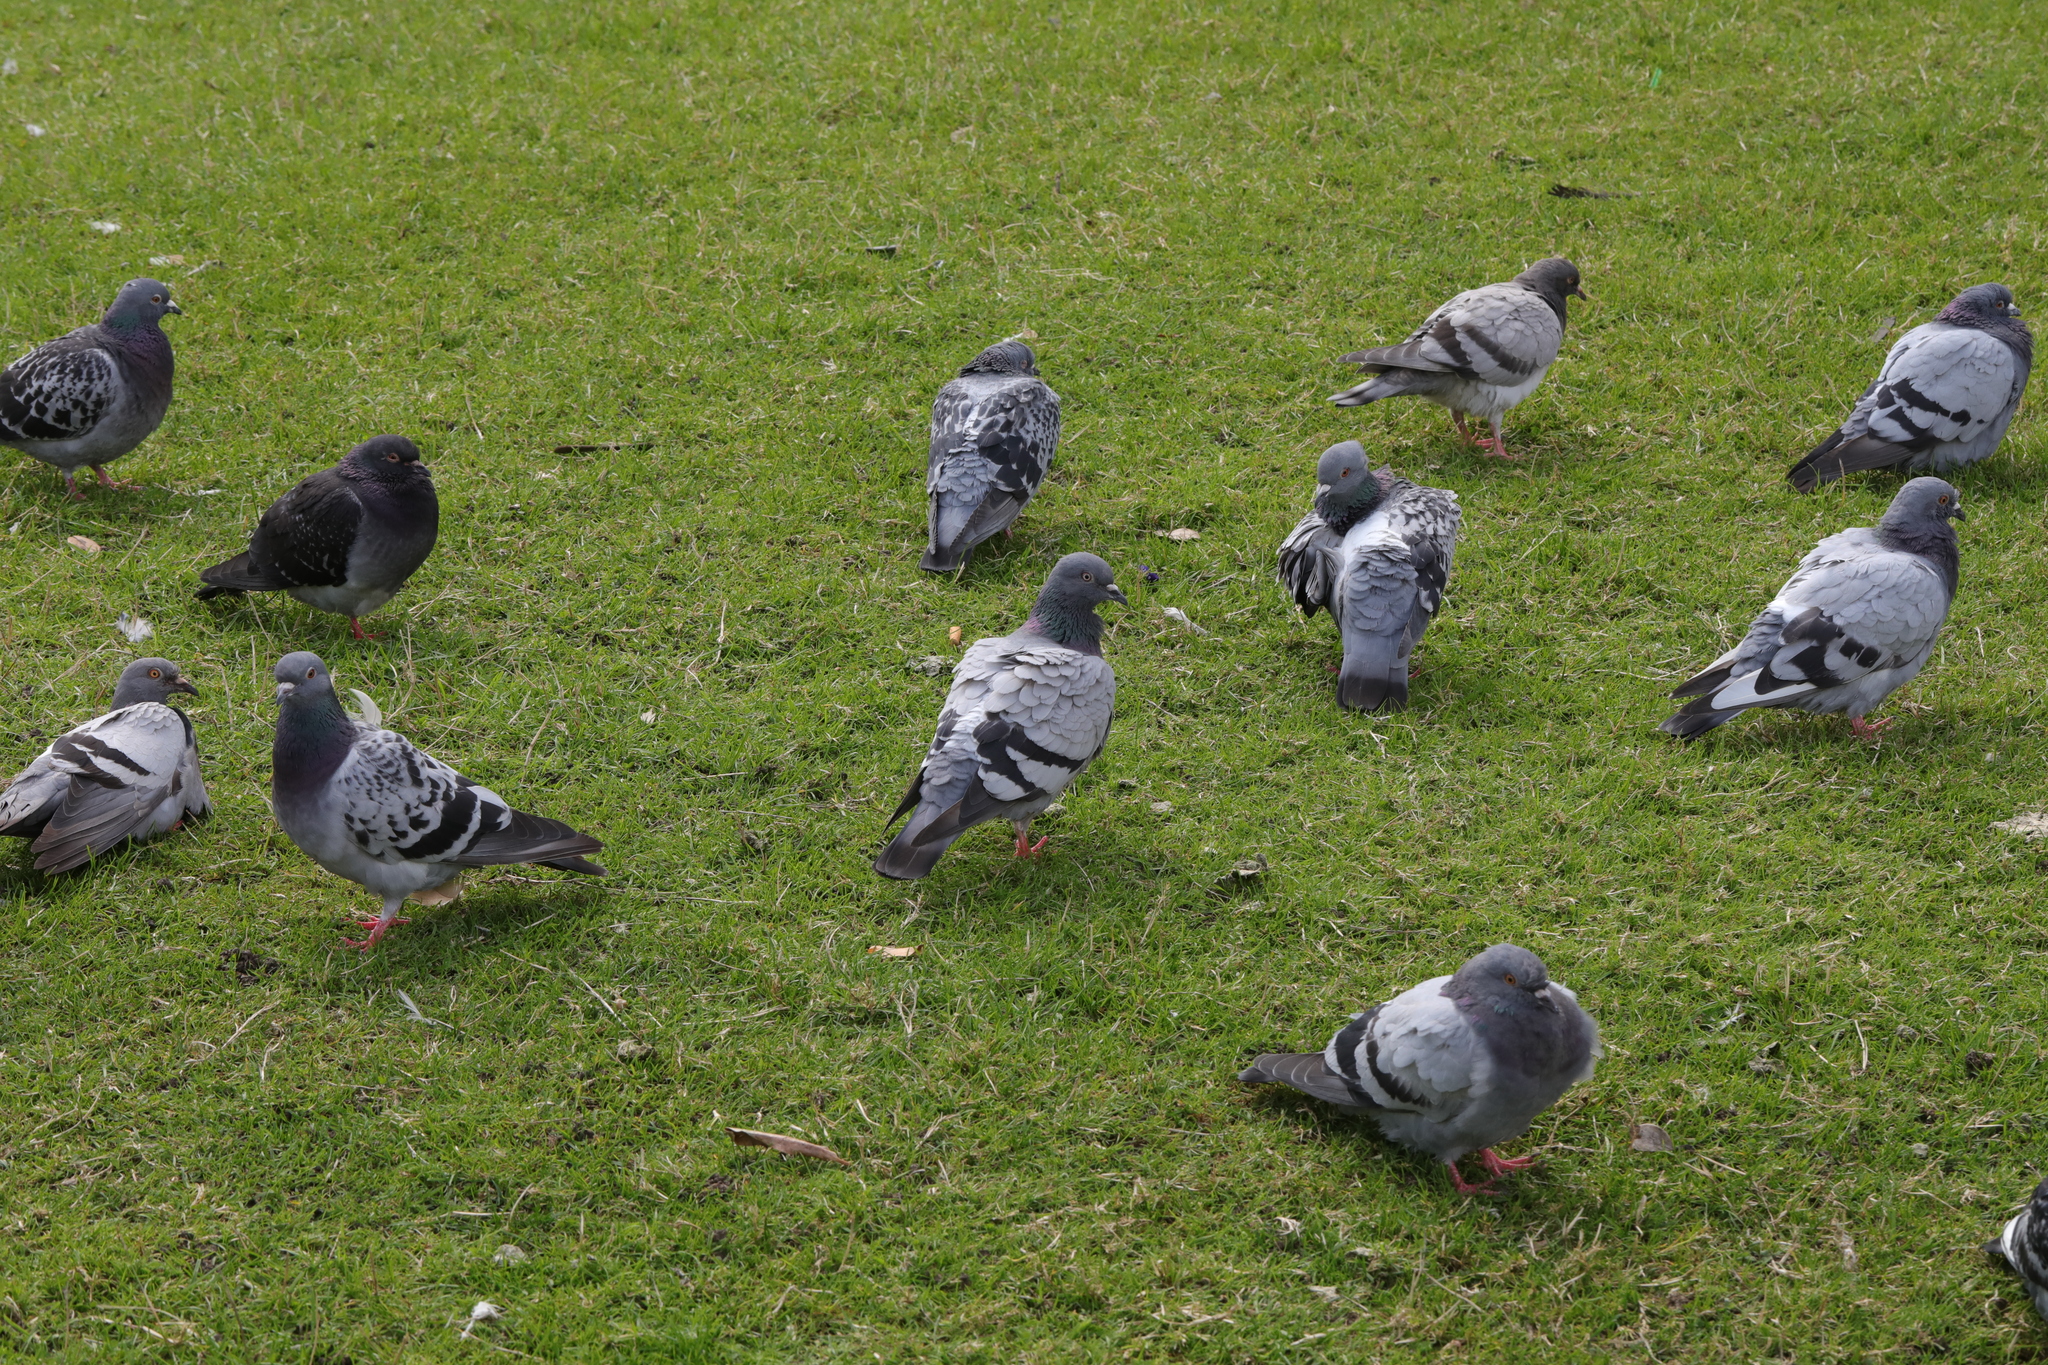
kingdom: Animalia
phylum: Chordata
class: Aves
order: Columbiformes
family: Columbidae
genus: Columba
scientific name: Columba livia
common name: Rock pigeon
